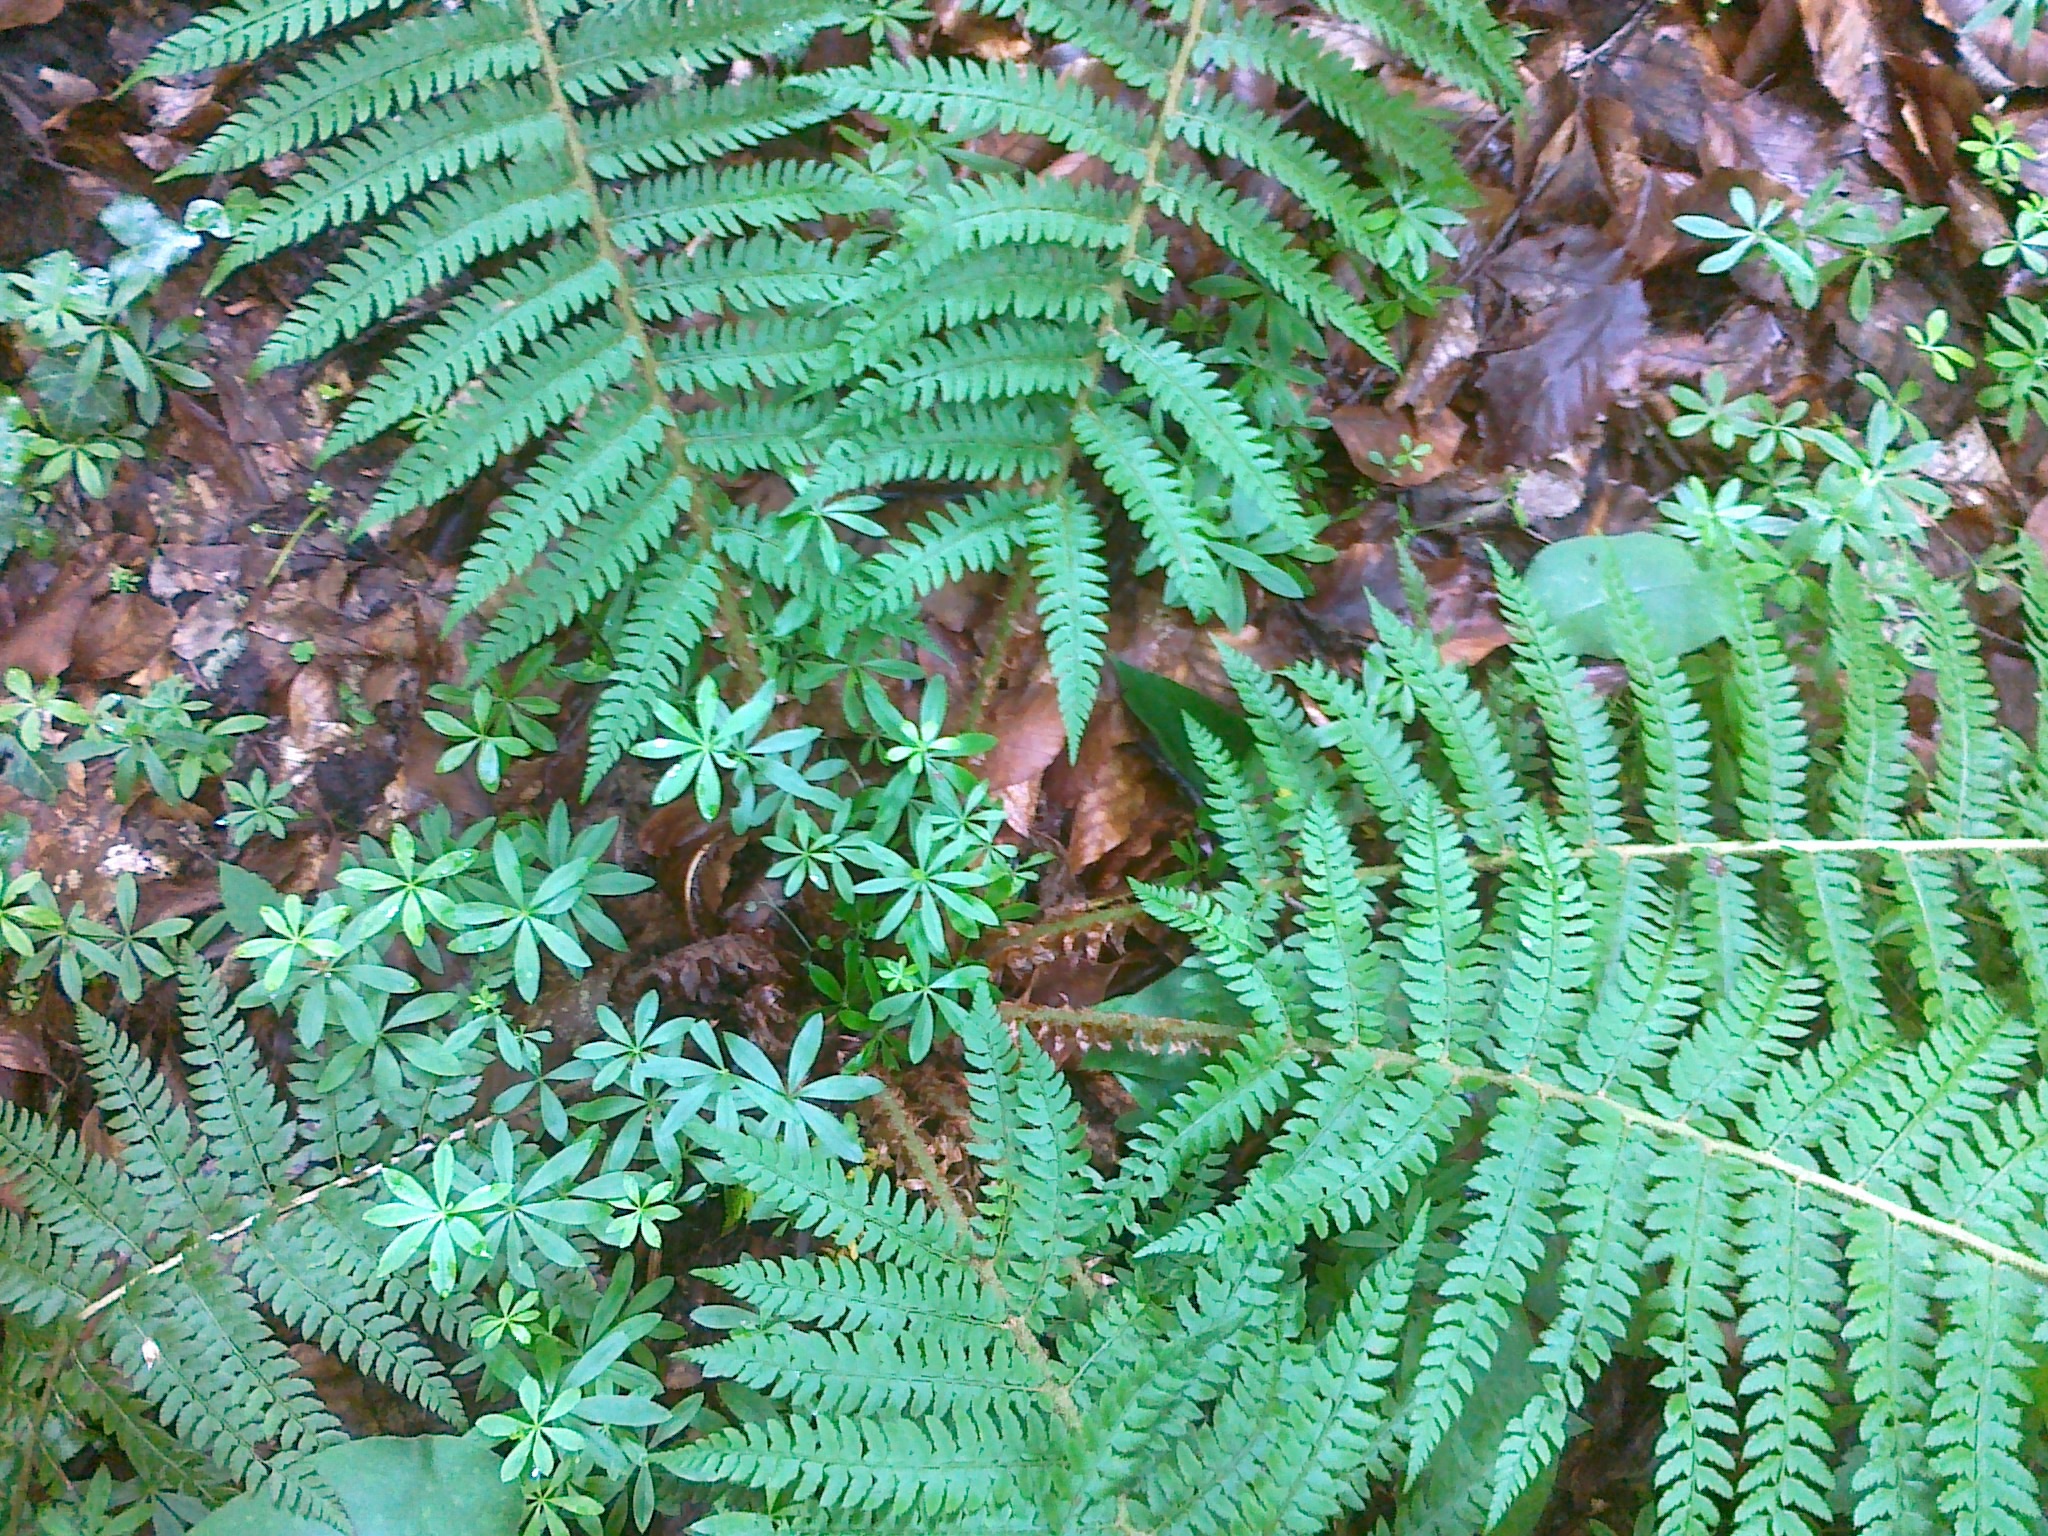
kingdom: Plantae
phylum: Tracheophyta
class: Polypodiopsida
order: Polypodiales
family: Dryopteridaceae
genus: Polystichum
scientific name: Polystichum setiferum
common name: Soft shield-fern
